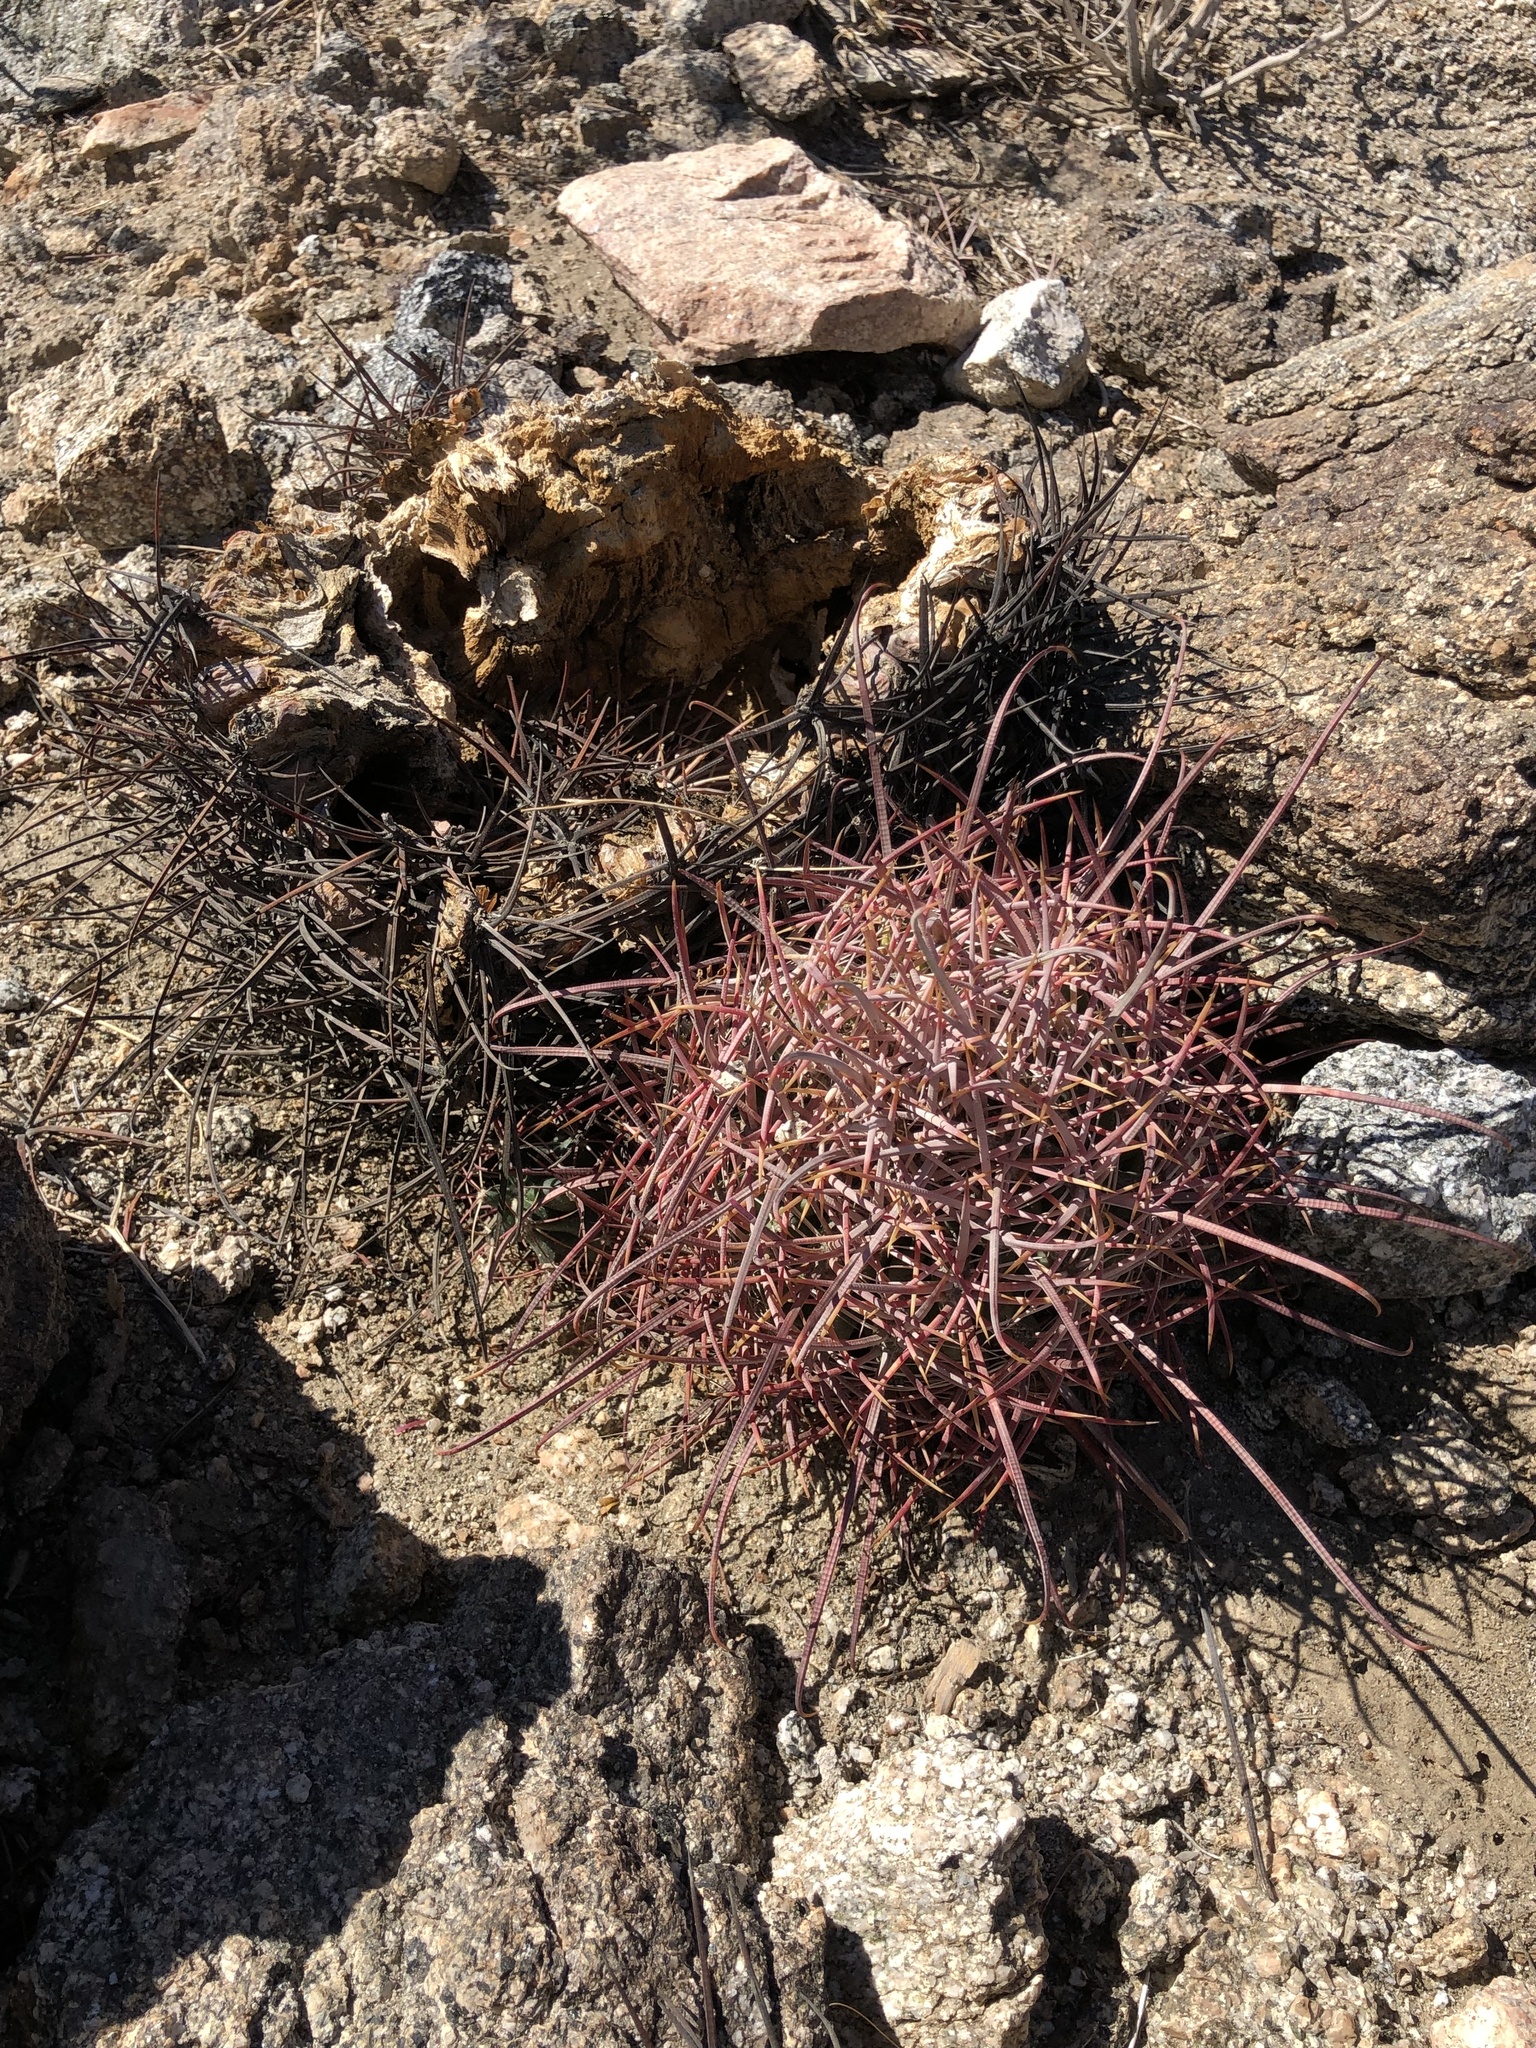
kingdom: Plantae
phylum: Tracheophyta
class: Magnoliopsida
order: Caryophyllales
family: Cactaceae
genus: Ferocactus
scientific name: Ferocactus cylindraceus
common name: California barrel cactus
